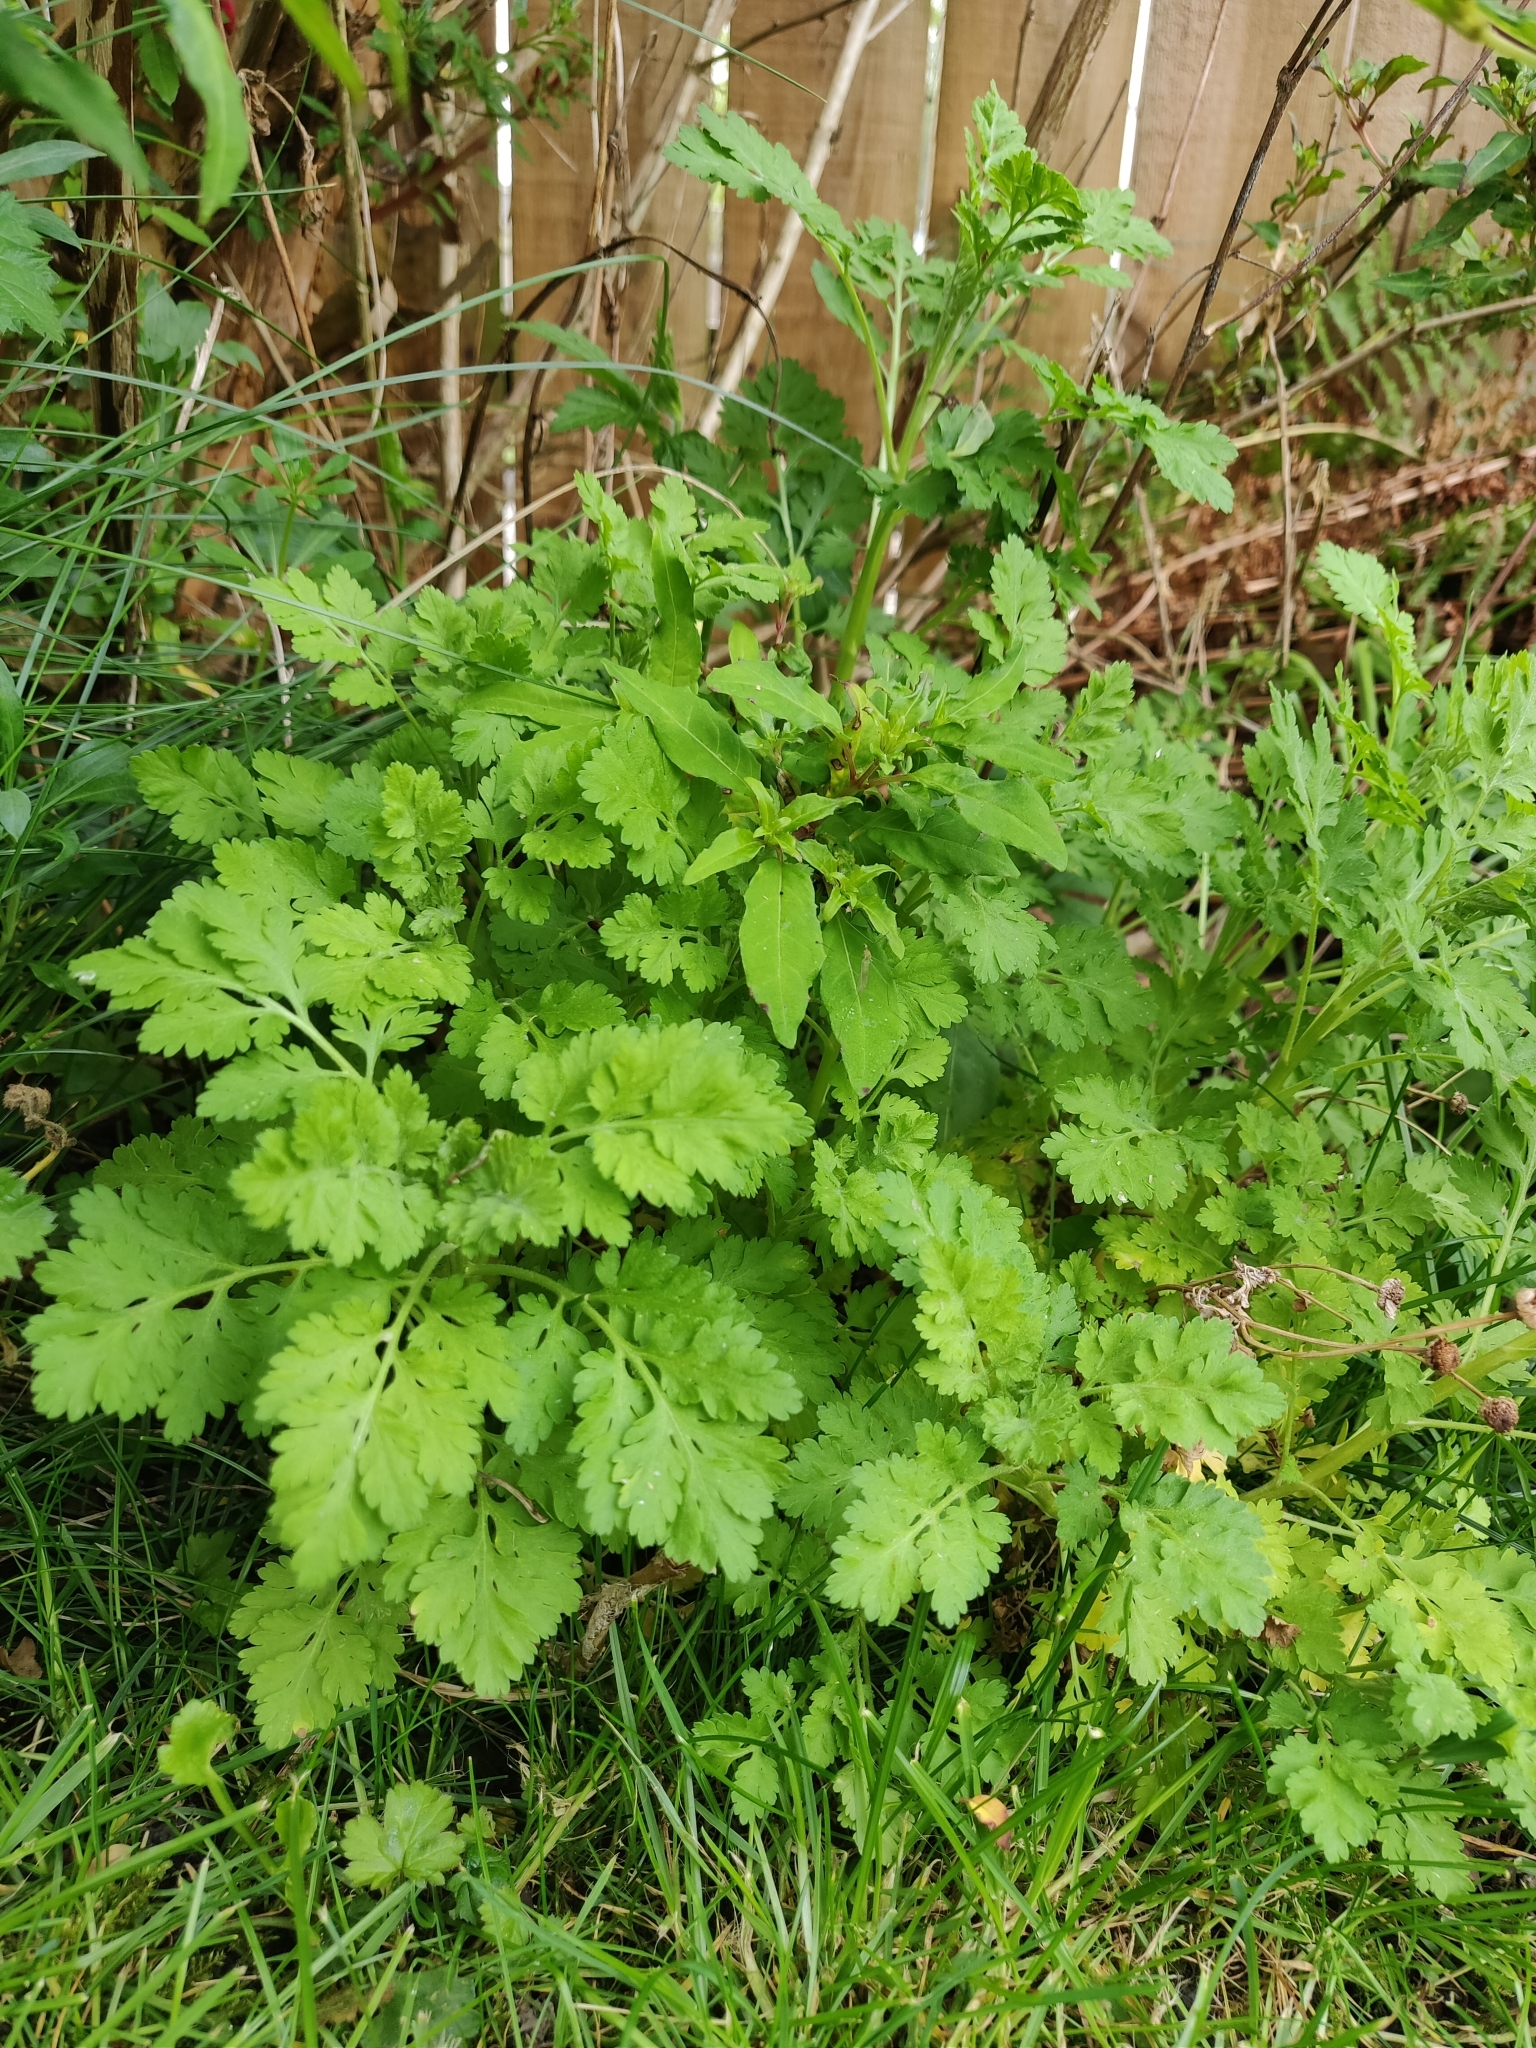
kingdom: Plantae
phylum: Tracheophyta
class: Magnoliopsida
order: Asterales
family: Asteraceae
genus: Tanacetum
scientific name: Tanacetum parthenium
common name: Feverfew
